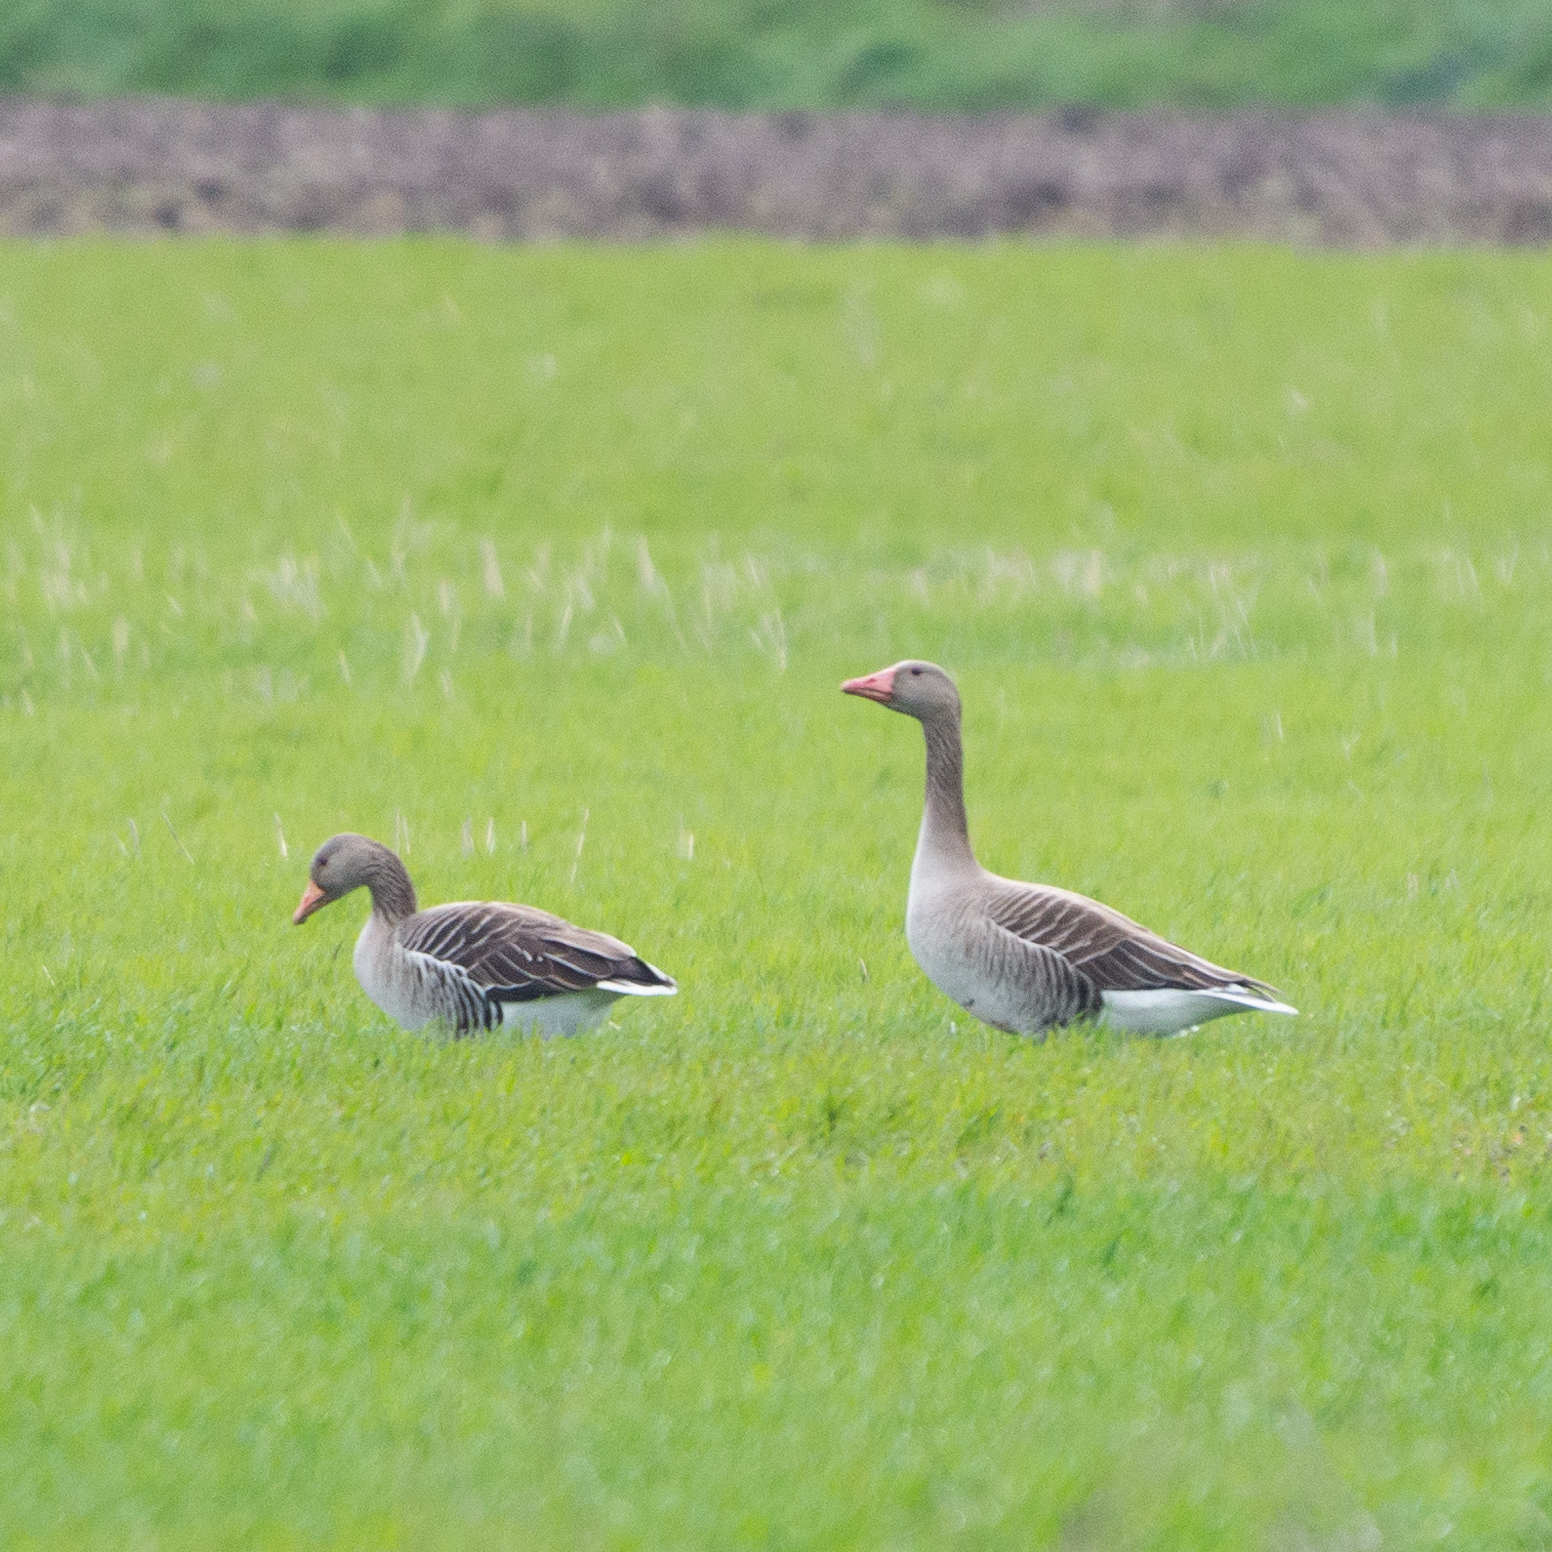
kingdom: Animalia
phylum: Chordata
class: Aves
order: Anseriformes
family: Anatidae
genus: Anser
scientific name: Anser anser
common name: Greylag goose
